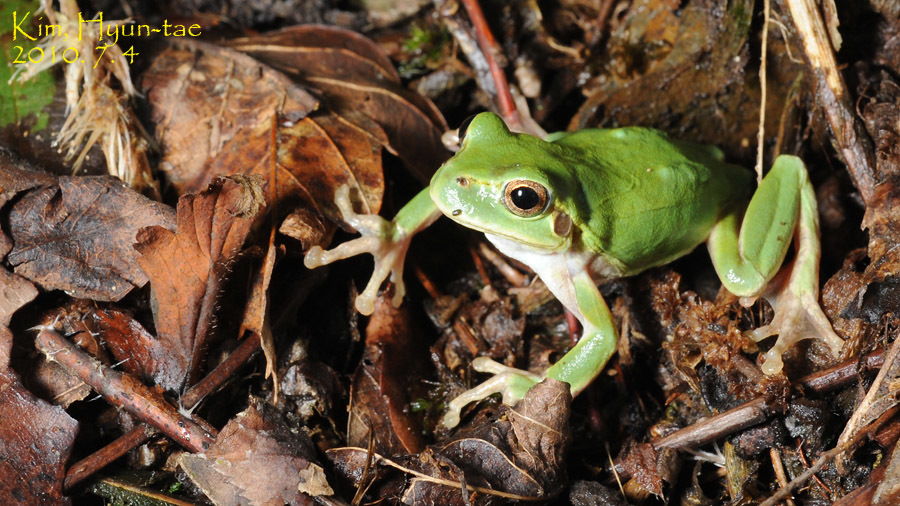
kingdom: Animalia
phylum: Chordata
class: Amphibia
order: Anura
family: Hylidae
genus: Dryophytes
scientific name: Dryophytes japonicus
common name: Japanese treefrog
